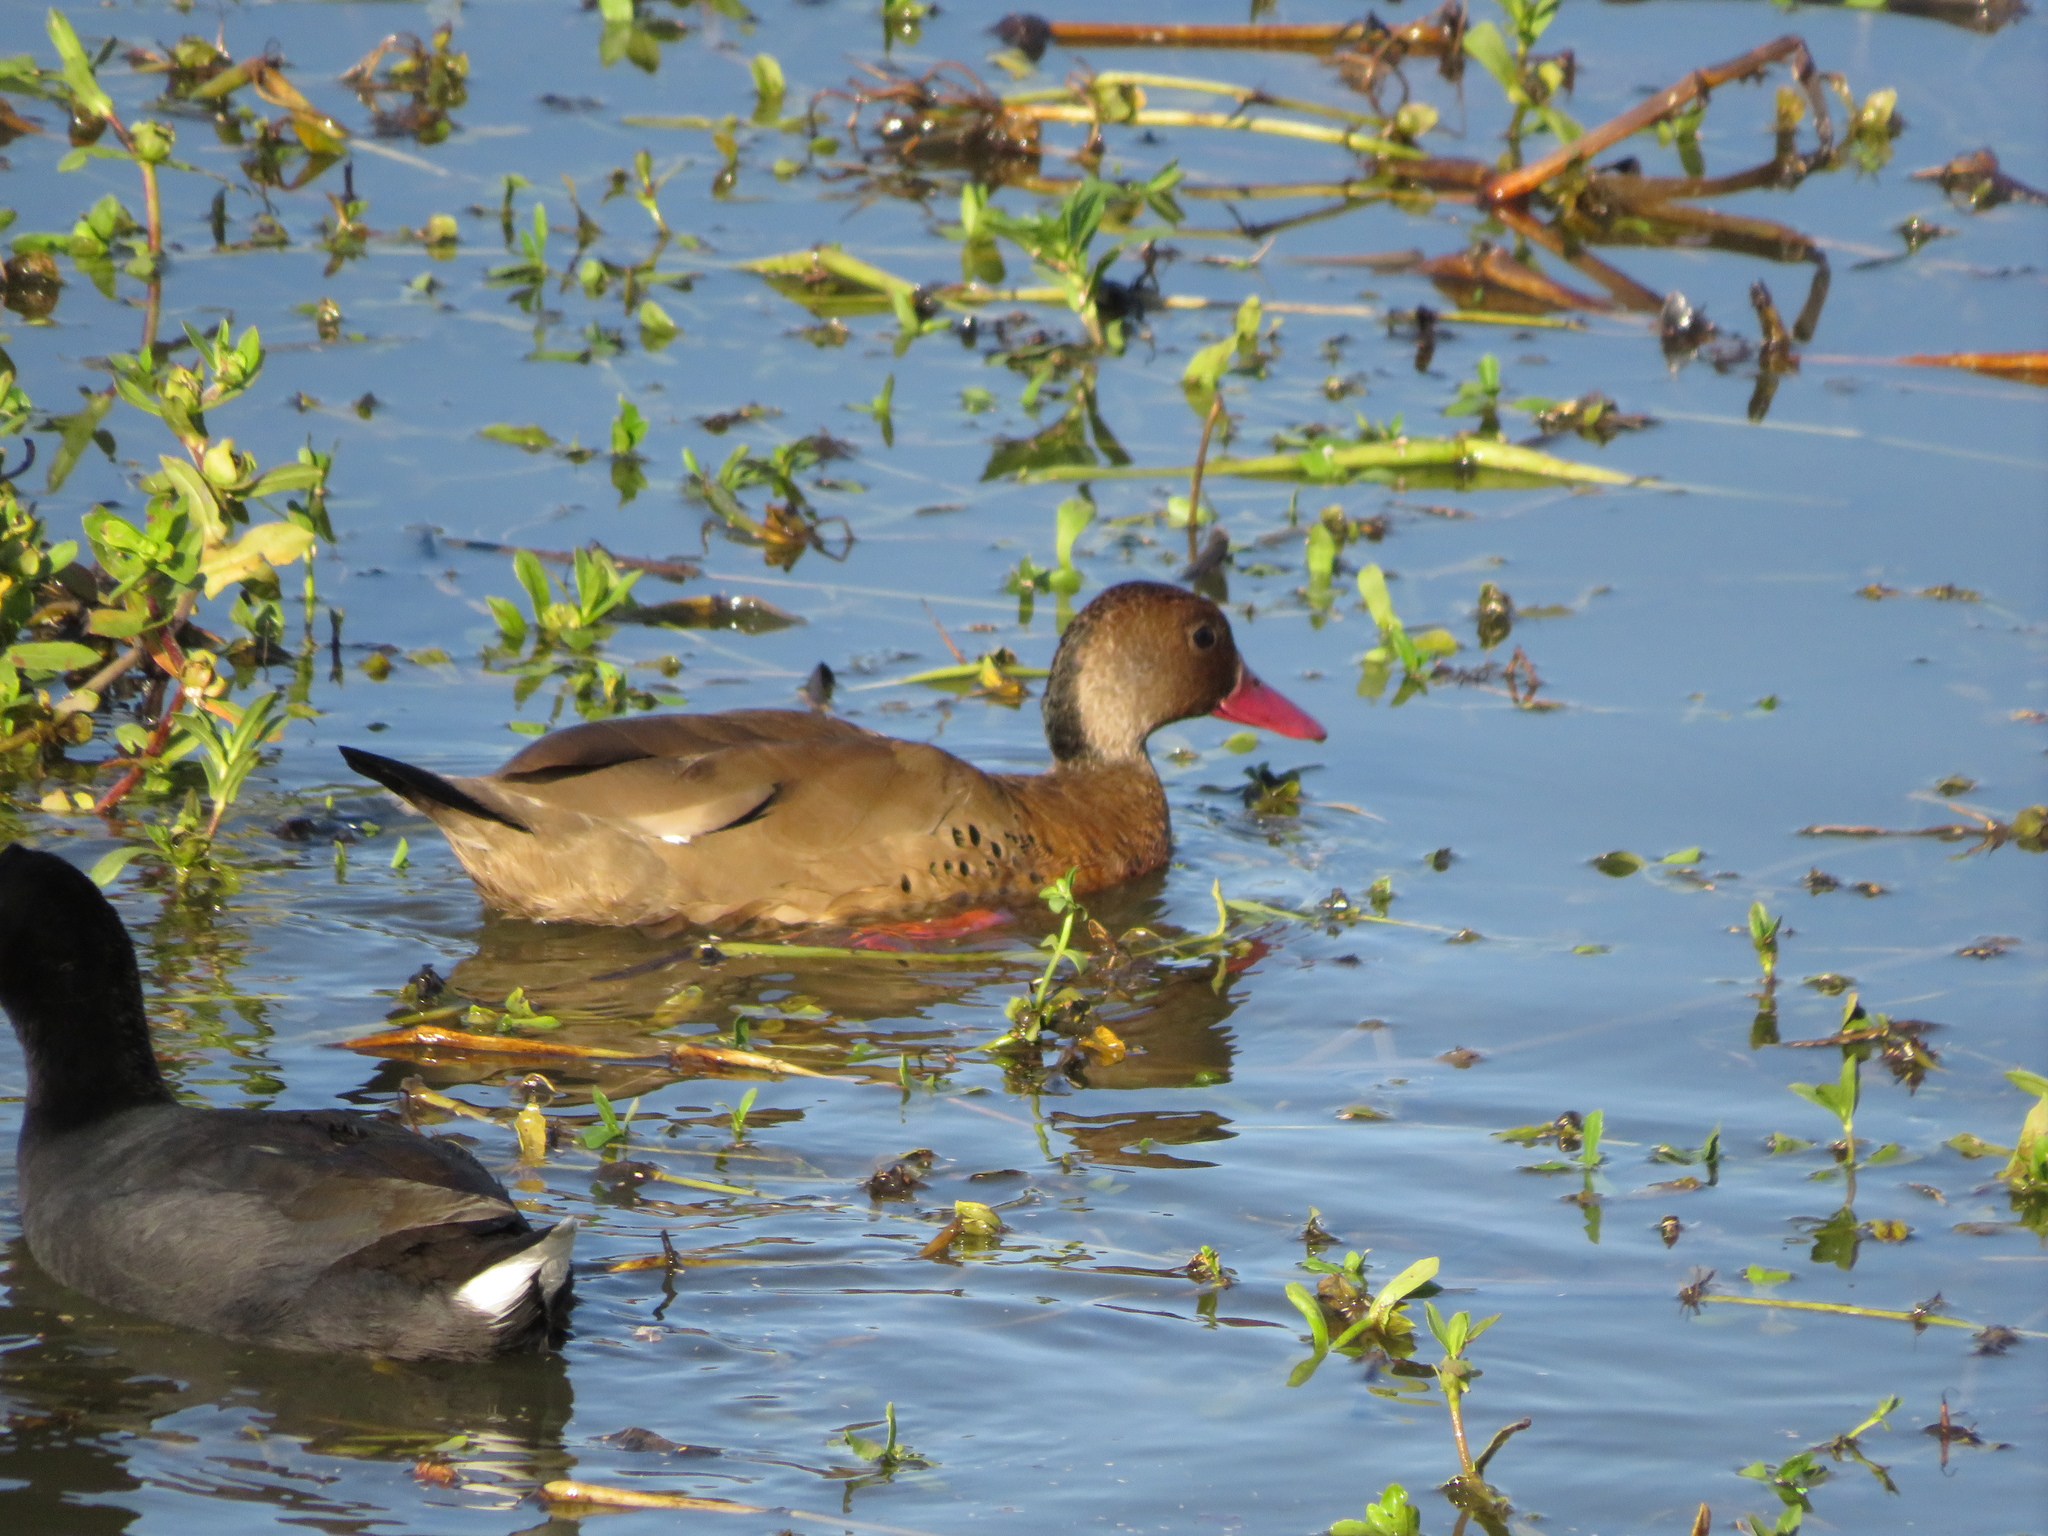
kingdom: Animalia
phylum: Chordata
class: Aves
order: Anseriformes
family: Anatidae
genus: Amazonetta
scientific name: Amazonetta brasiliensis
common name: Brazilian teal
